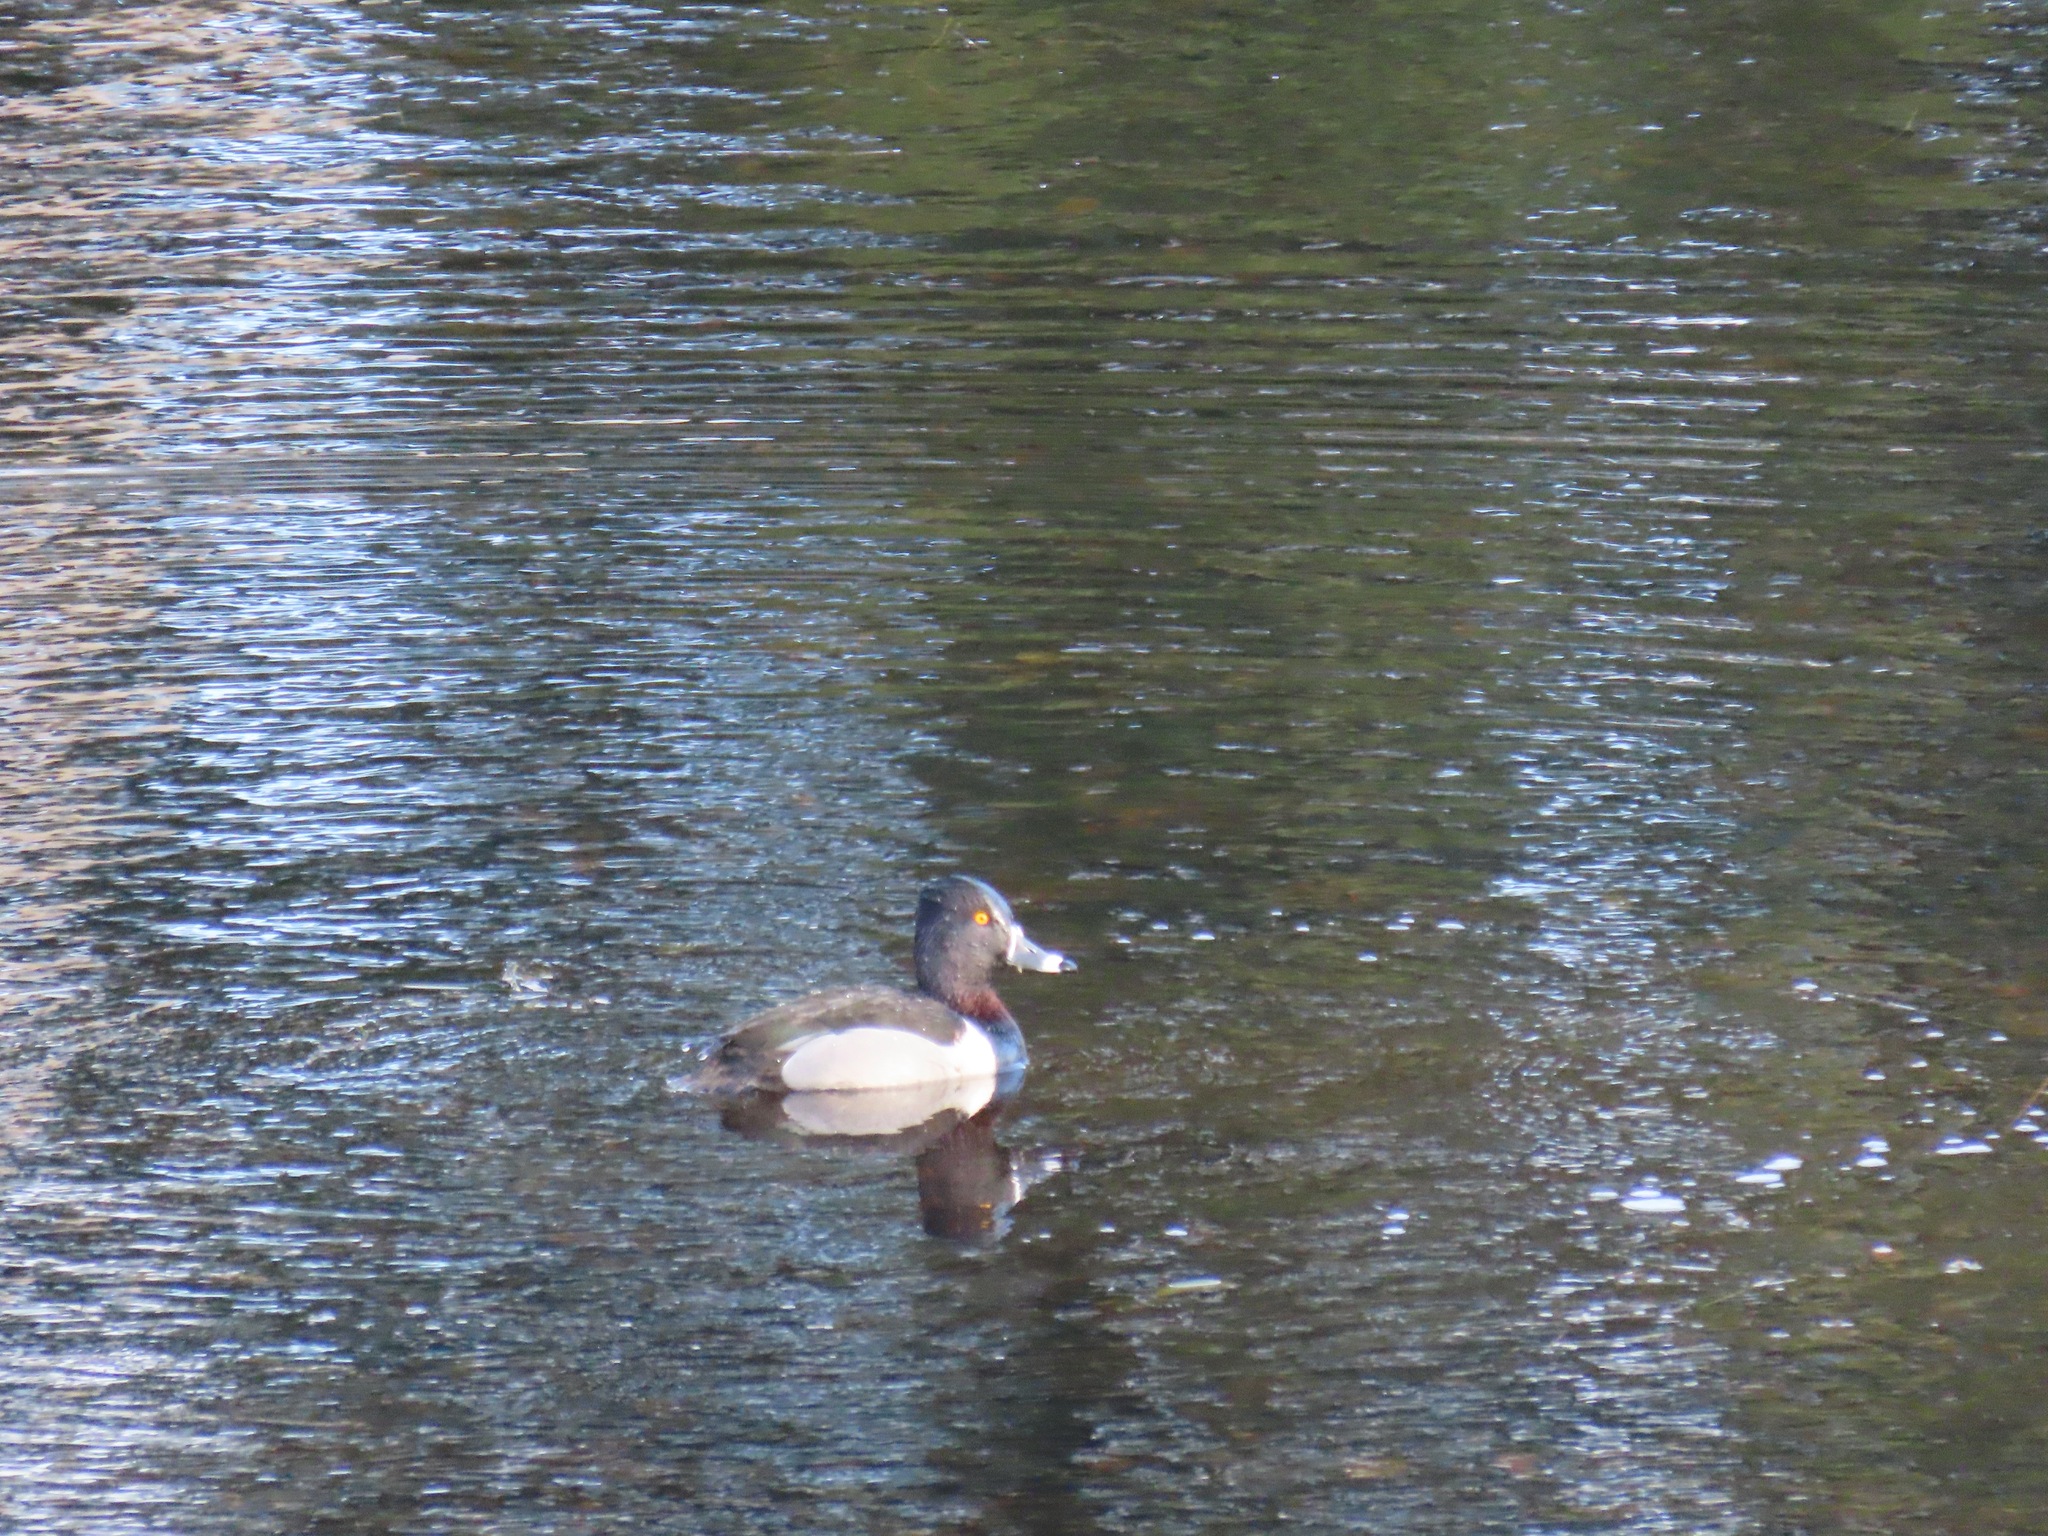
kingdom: Animalia
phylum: Chordata
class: Aves
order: Anseriformes
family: Anatidae
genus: Aythya
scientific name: Aythya collaris
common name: Ring-necked duck
